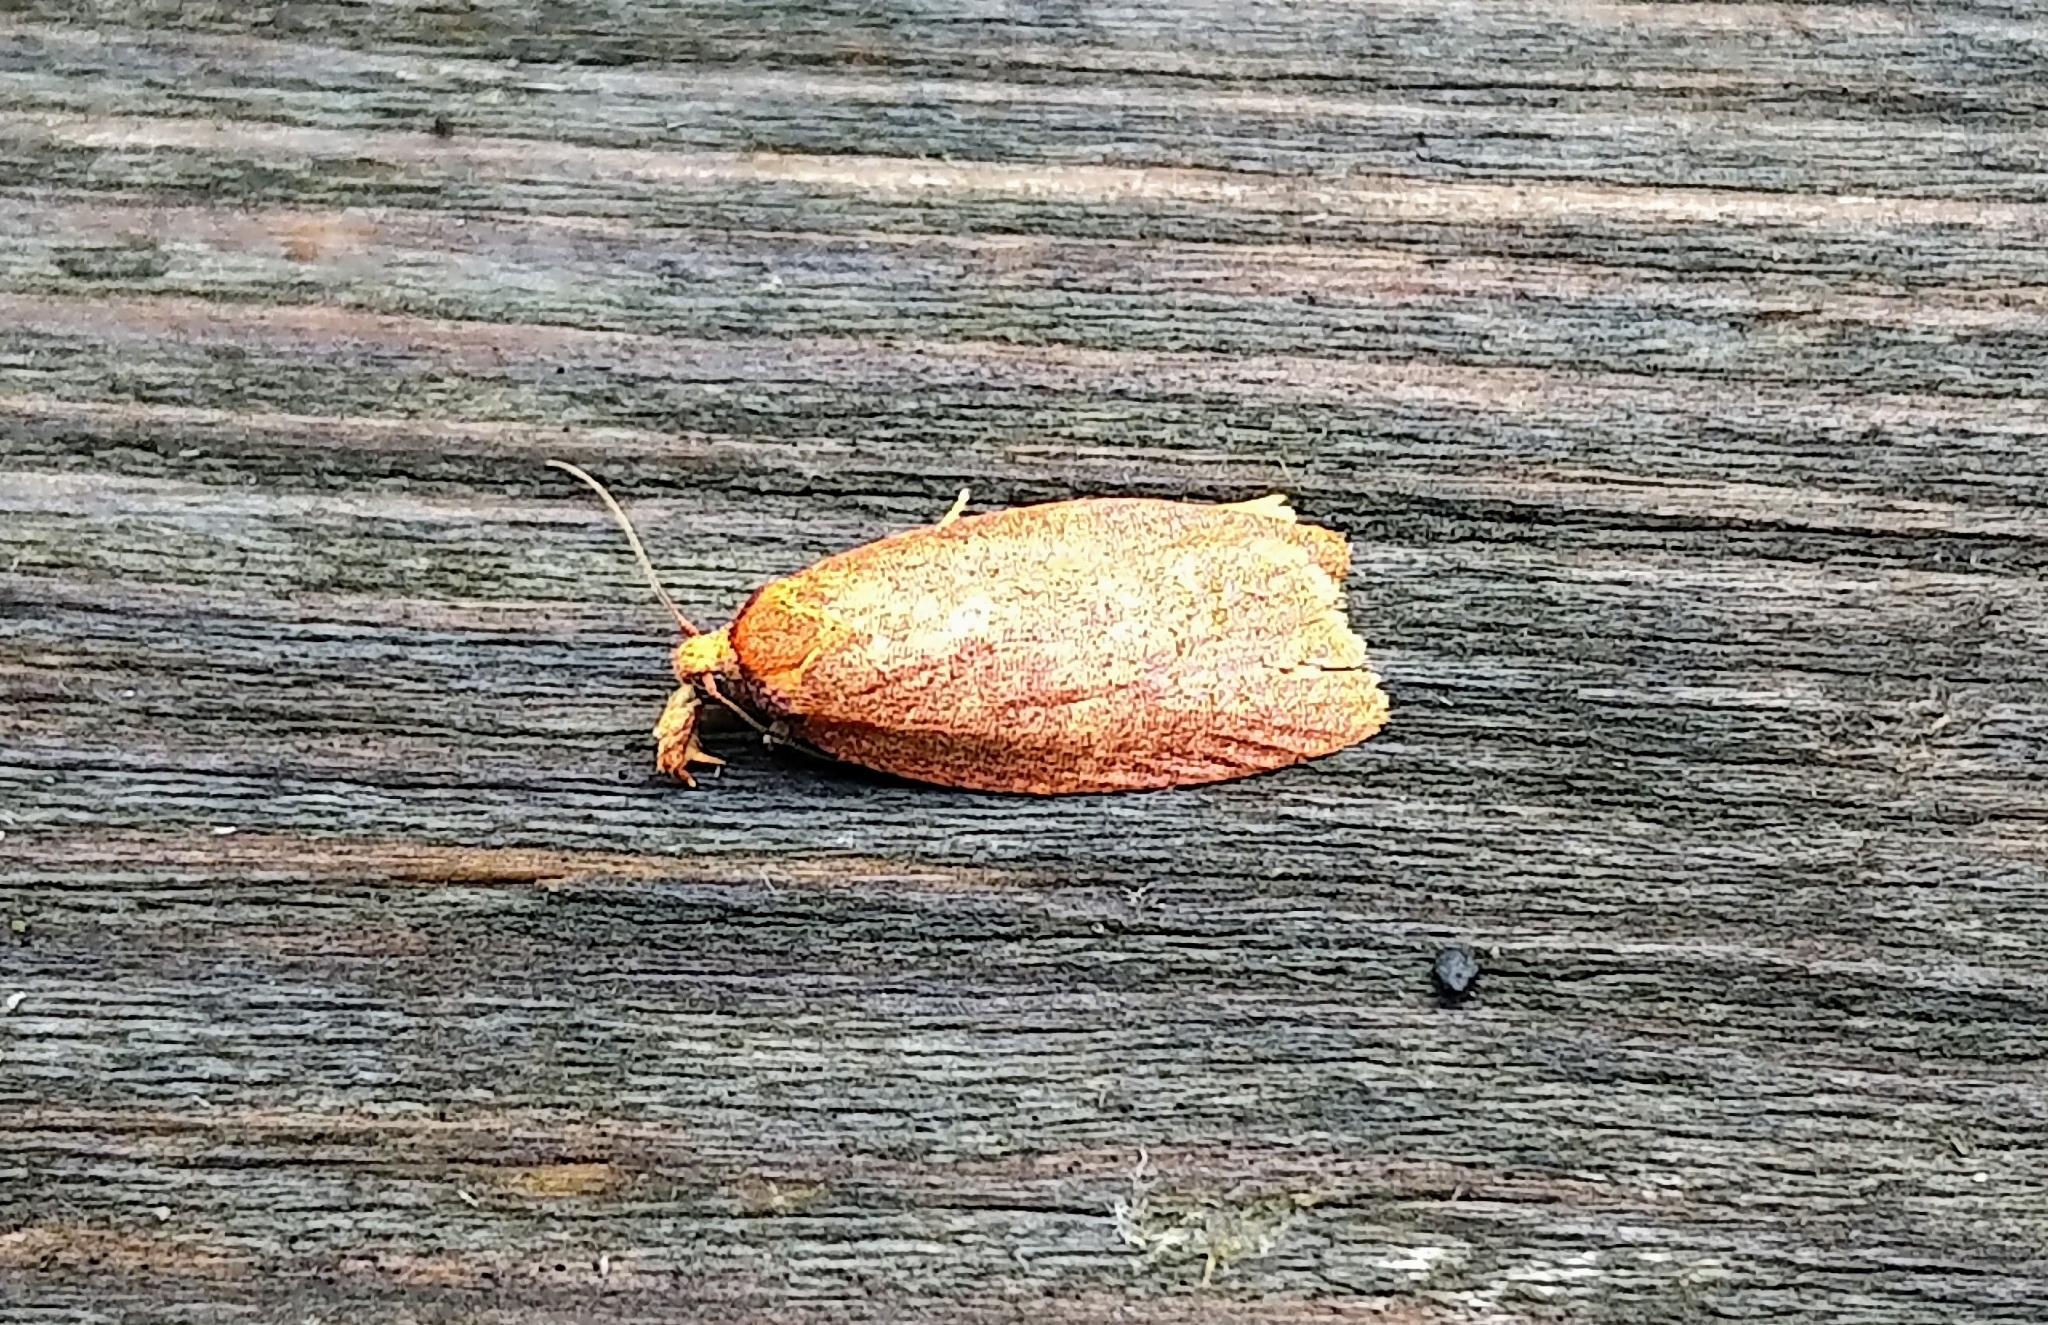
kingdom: Animalia
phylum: Arthropoda
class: Insecta
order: Lepidoptera
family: Tortricidae
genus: Cenopis
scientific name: Cenopis directana
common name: Chokecherry leafroller moth
